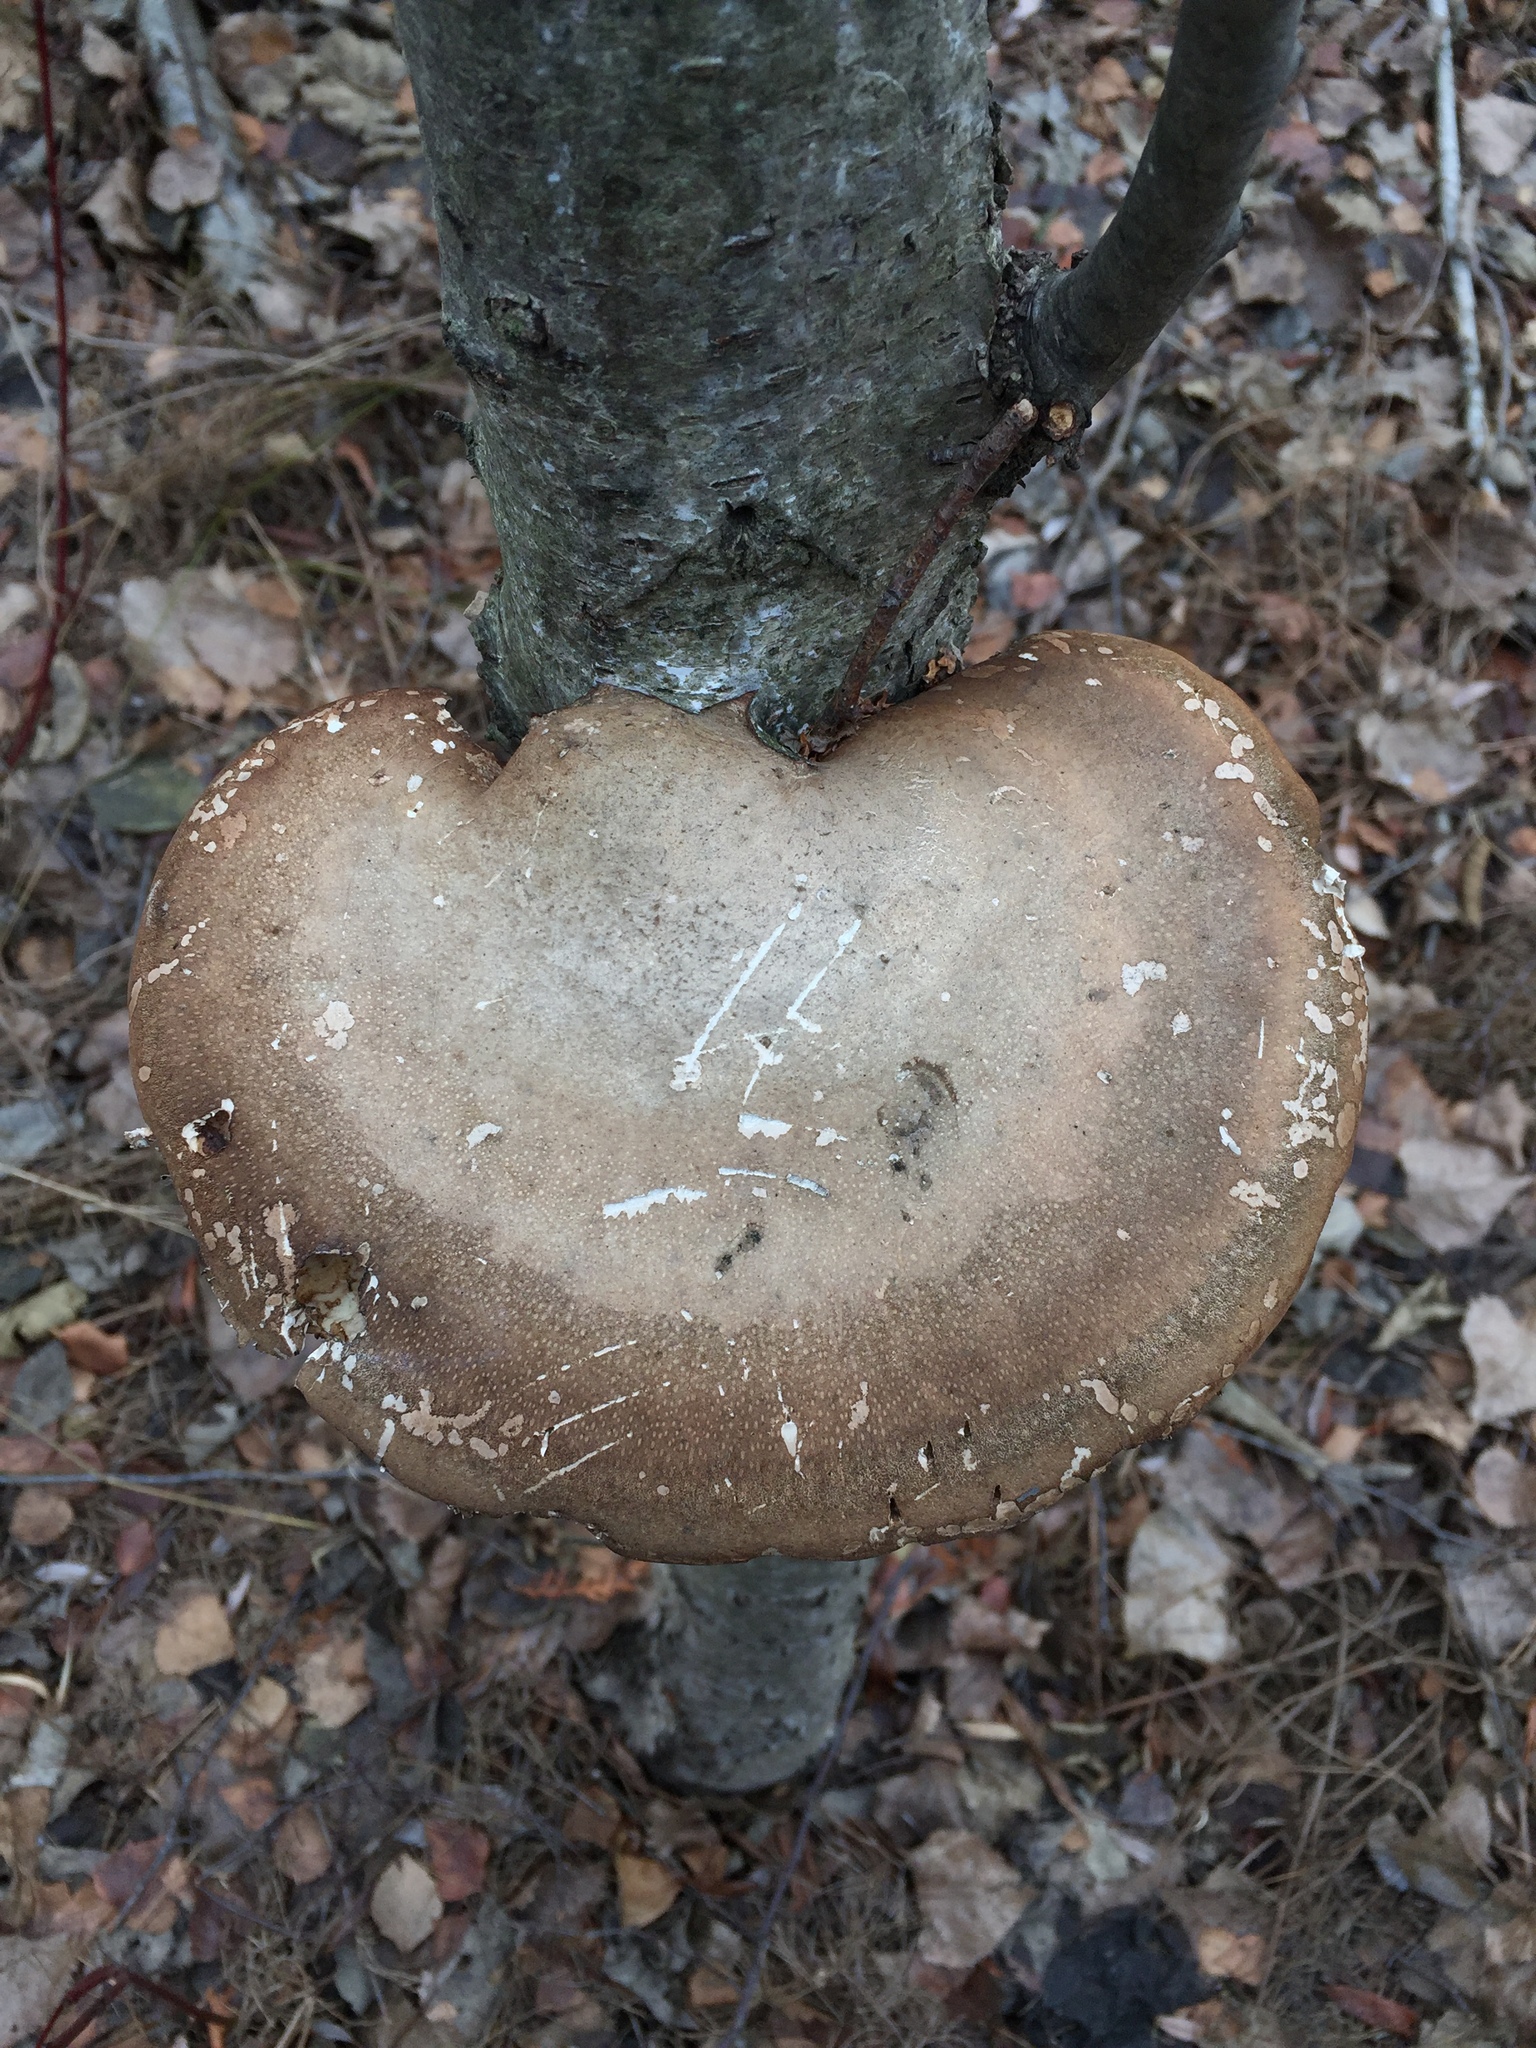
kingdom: Fungi
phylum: Basidiomycota
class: Agaricomycetes
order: Polyporales
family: Fomitopsidaceae
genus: Fomitopsis
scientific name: Fomitopsis betulina
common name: Birch polypore
